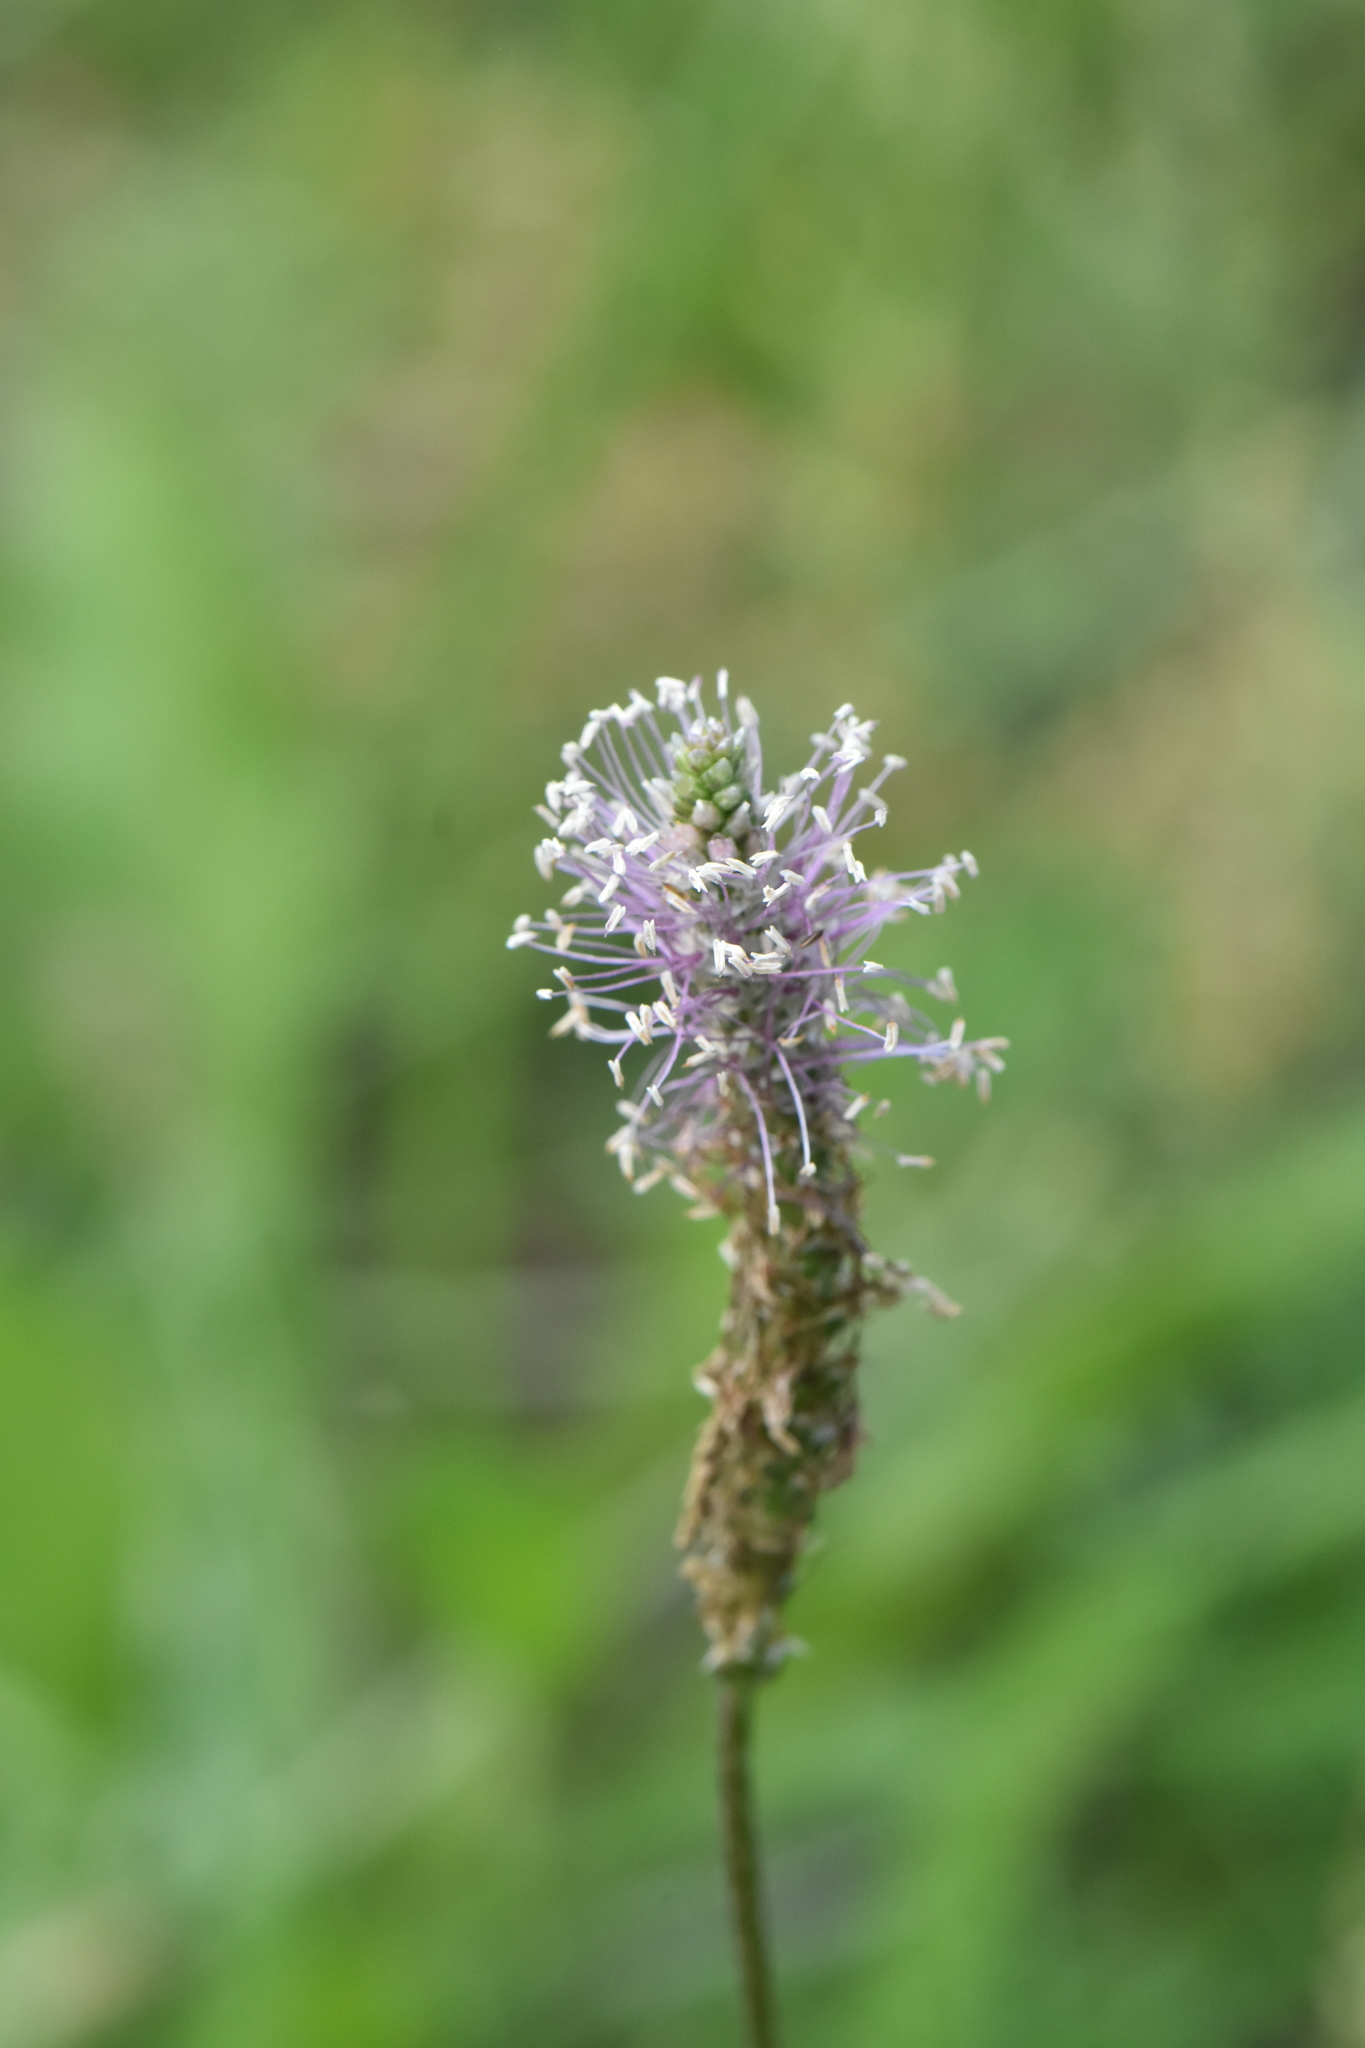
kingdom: Plantae
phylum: Tracheophyta
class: Magnoliopsida
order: Lamiales
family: Plantaginaceae
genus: Plantago
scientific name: Plantago media
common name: Hoary plantain
